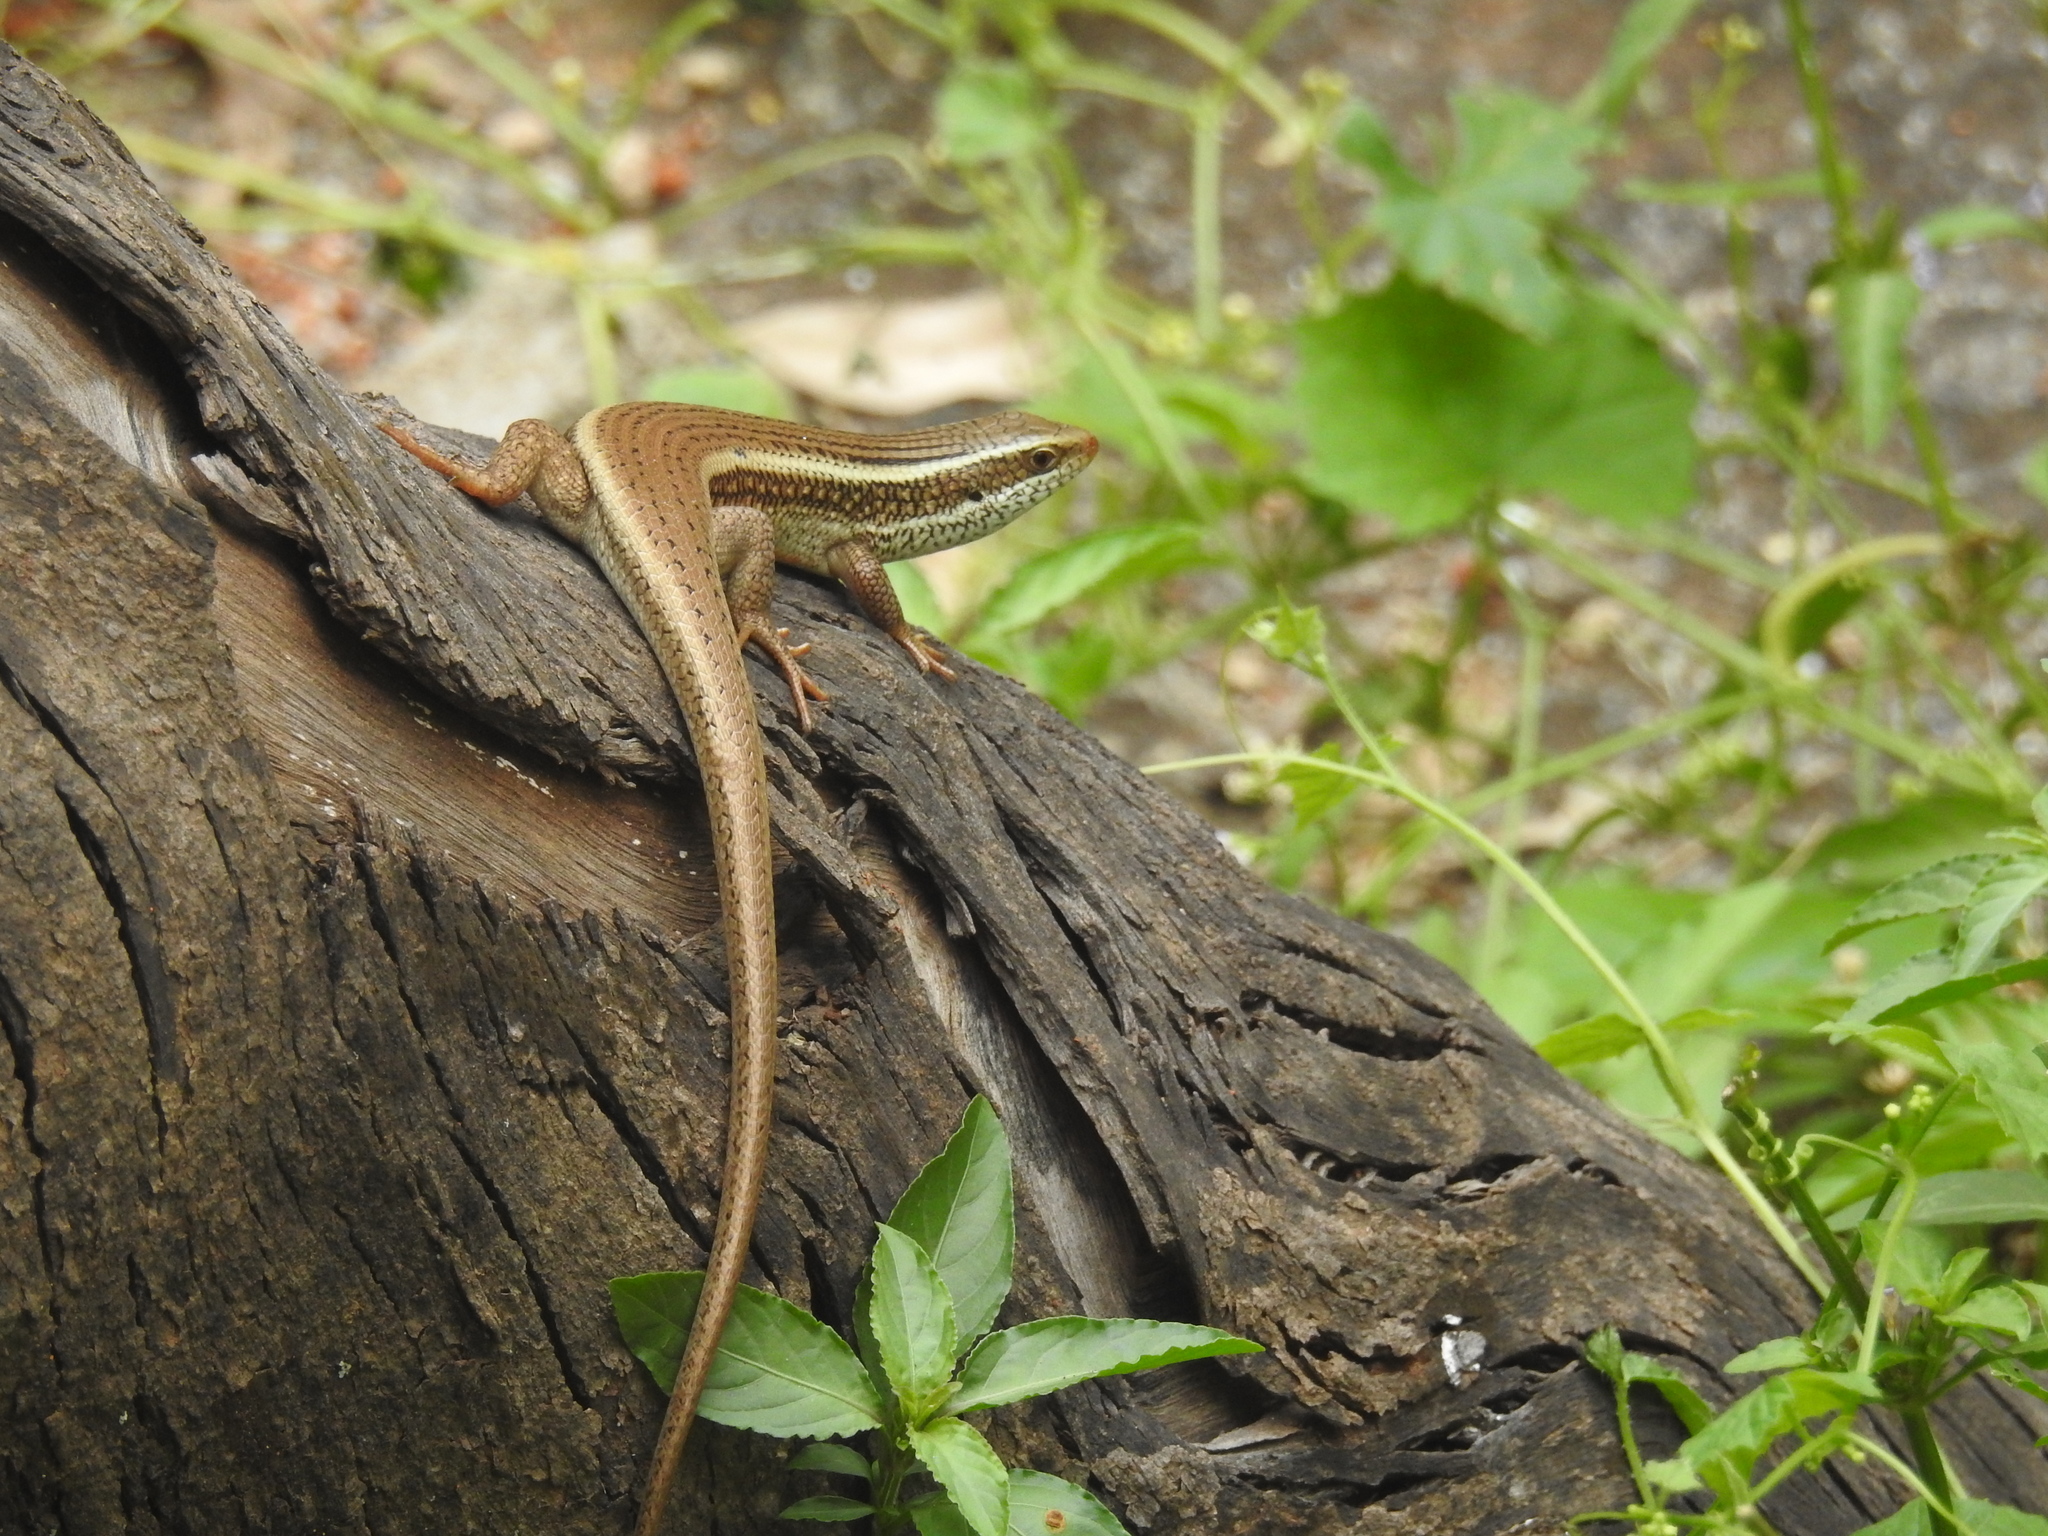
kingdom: Animalia
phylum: Chordata
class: Squamata
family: Scincidae
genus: Eutropis
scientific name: Eutropis carinata
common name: Keeled indian mabuya
